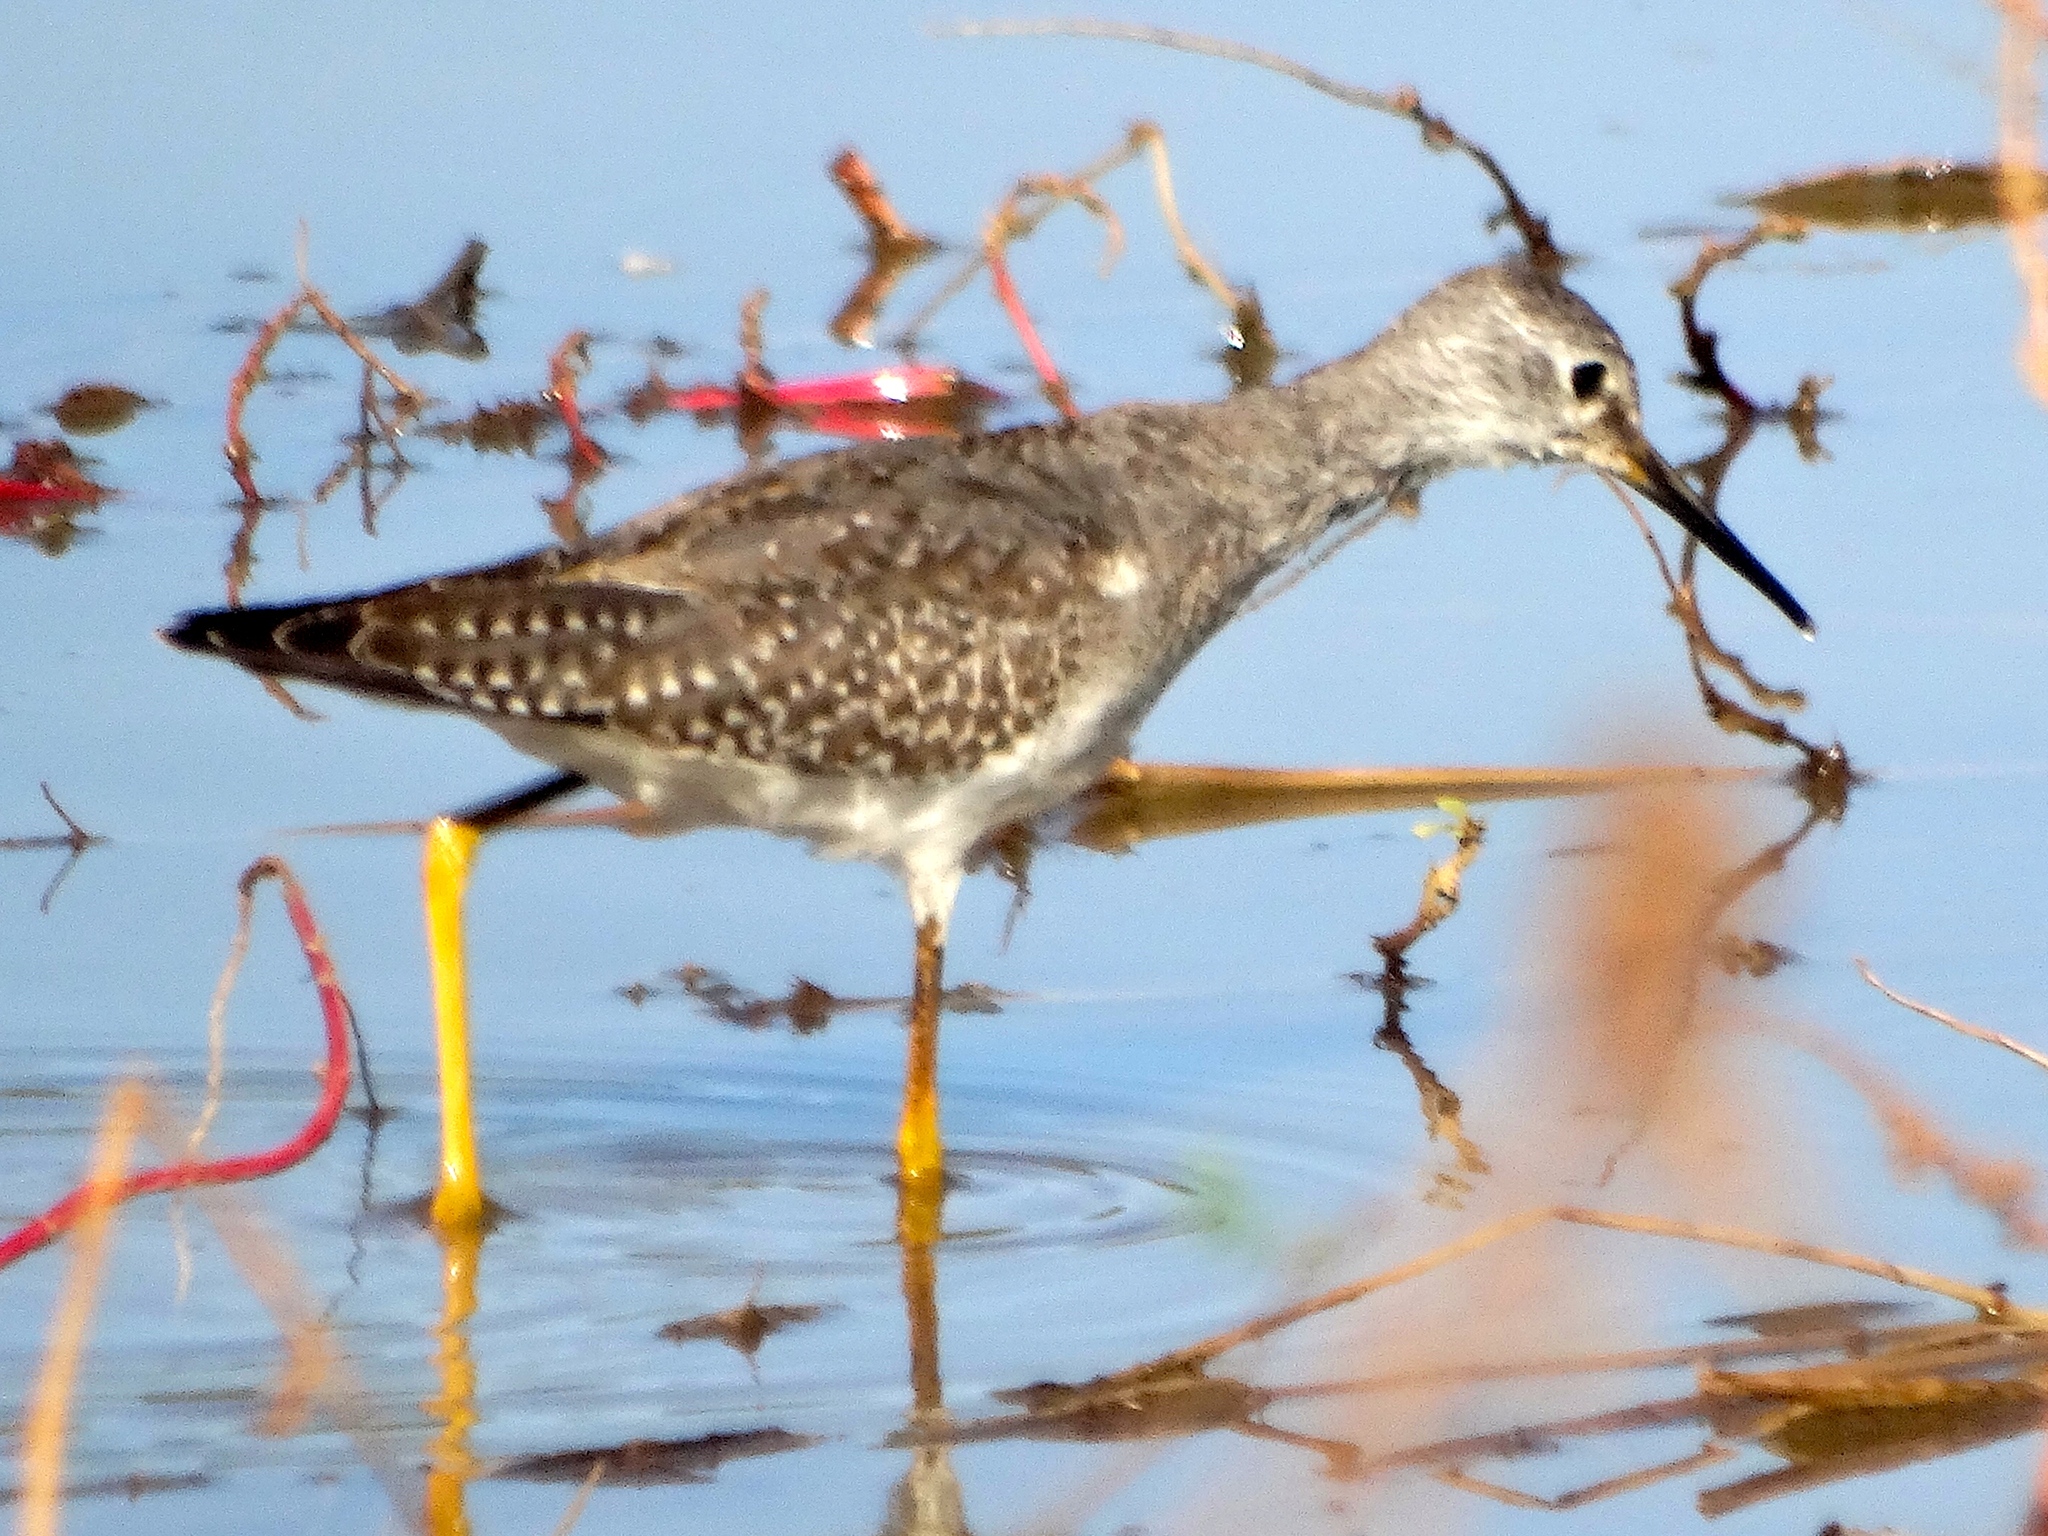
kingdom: Animalia
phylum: Chordata
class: Aves
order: Charadriiformes
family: Scolopacidae
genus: Tringa
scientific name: Tringa flavipes
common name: Lesser yellowlegs
